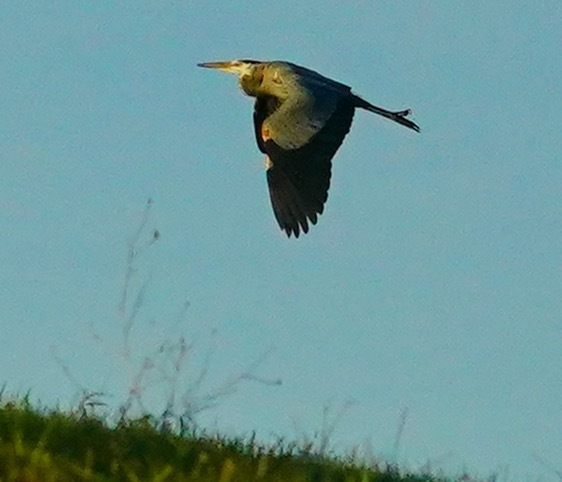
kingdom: Animalia
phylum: Chordata
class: Aves
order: Pelecaniformes
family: Ardeidae
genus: Ardea
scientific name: Ardea herodias
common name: Great blue heron
